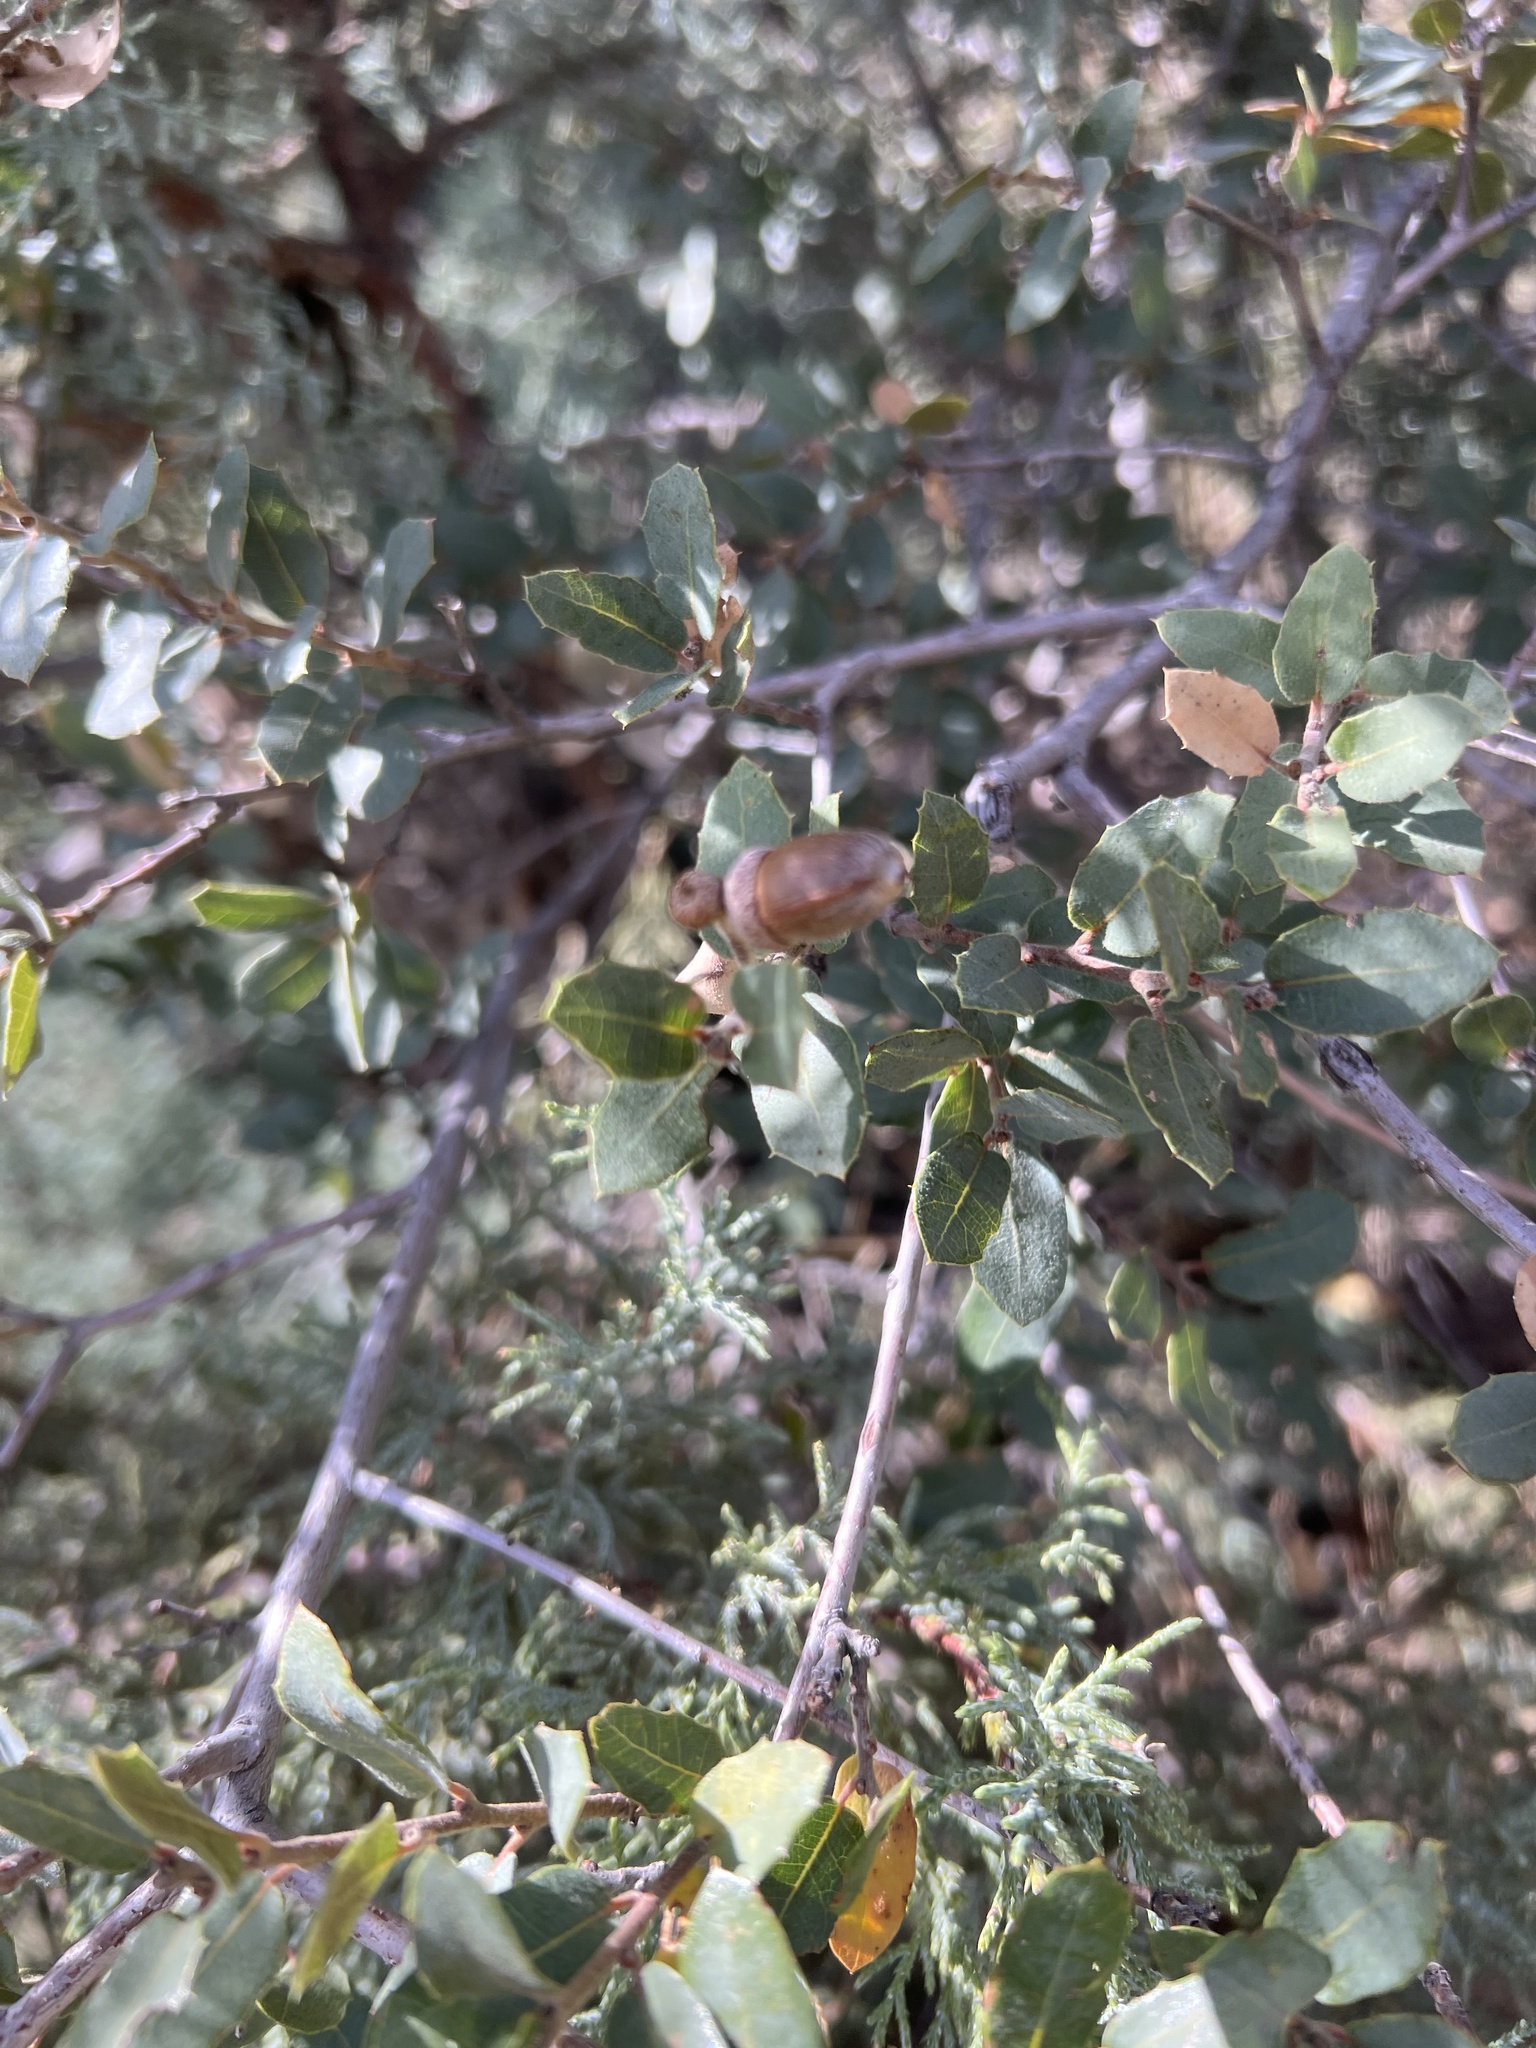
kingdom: Plantae
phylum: Tracheophyta
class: Magnoliopsida
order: Fagales
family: Fagaceae
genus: Quercus
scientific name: Quercus turbinella
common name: Sonoran scrub oak
